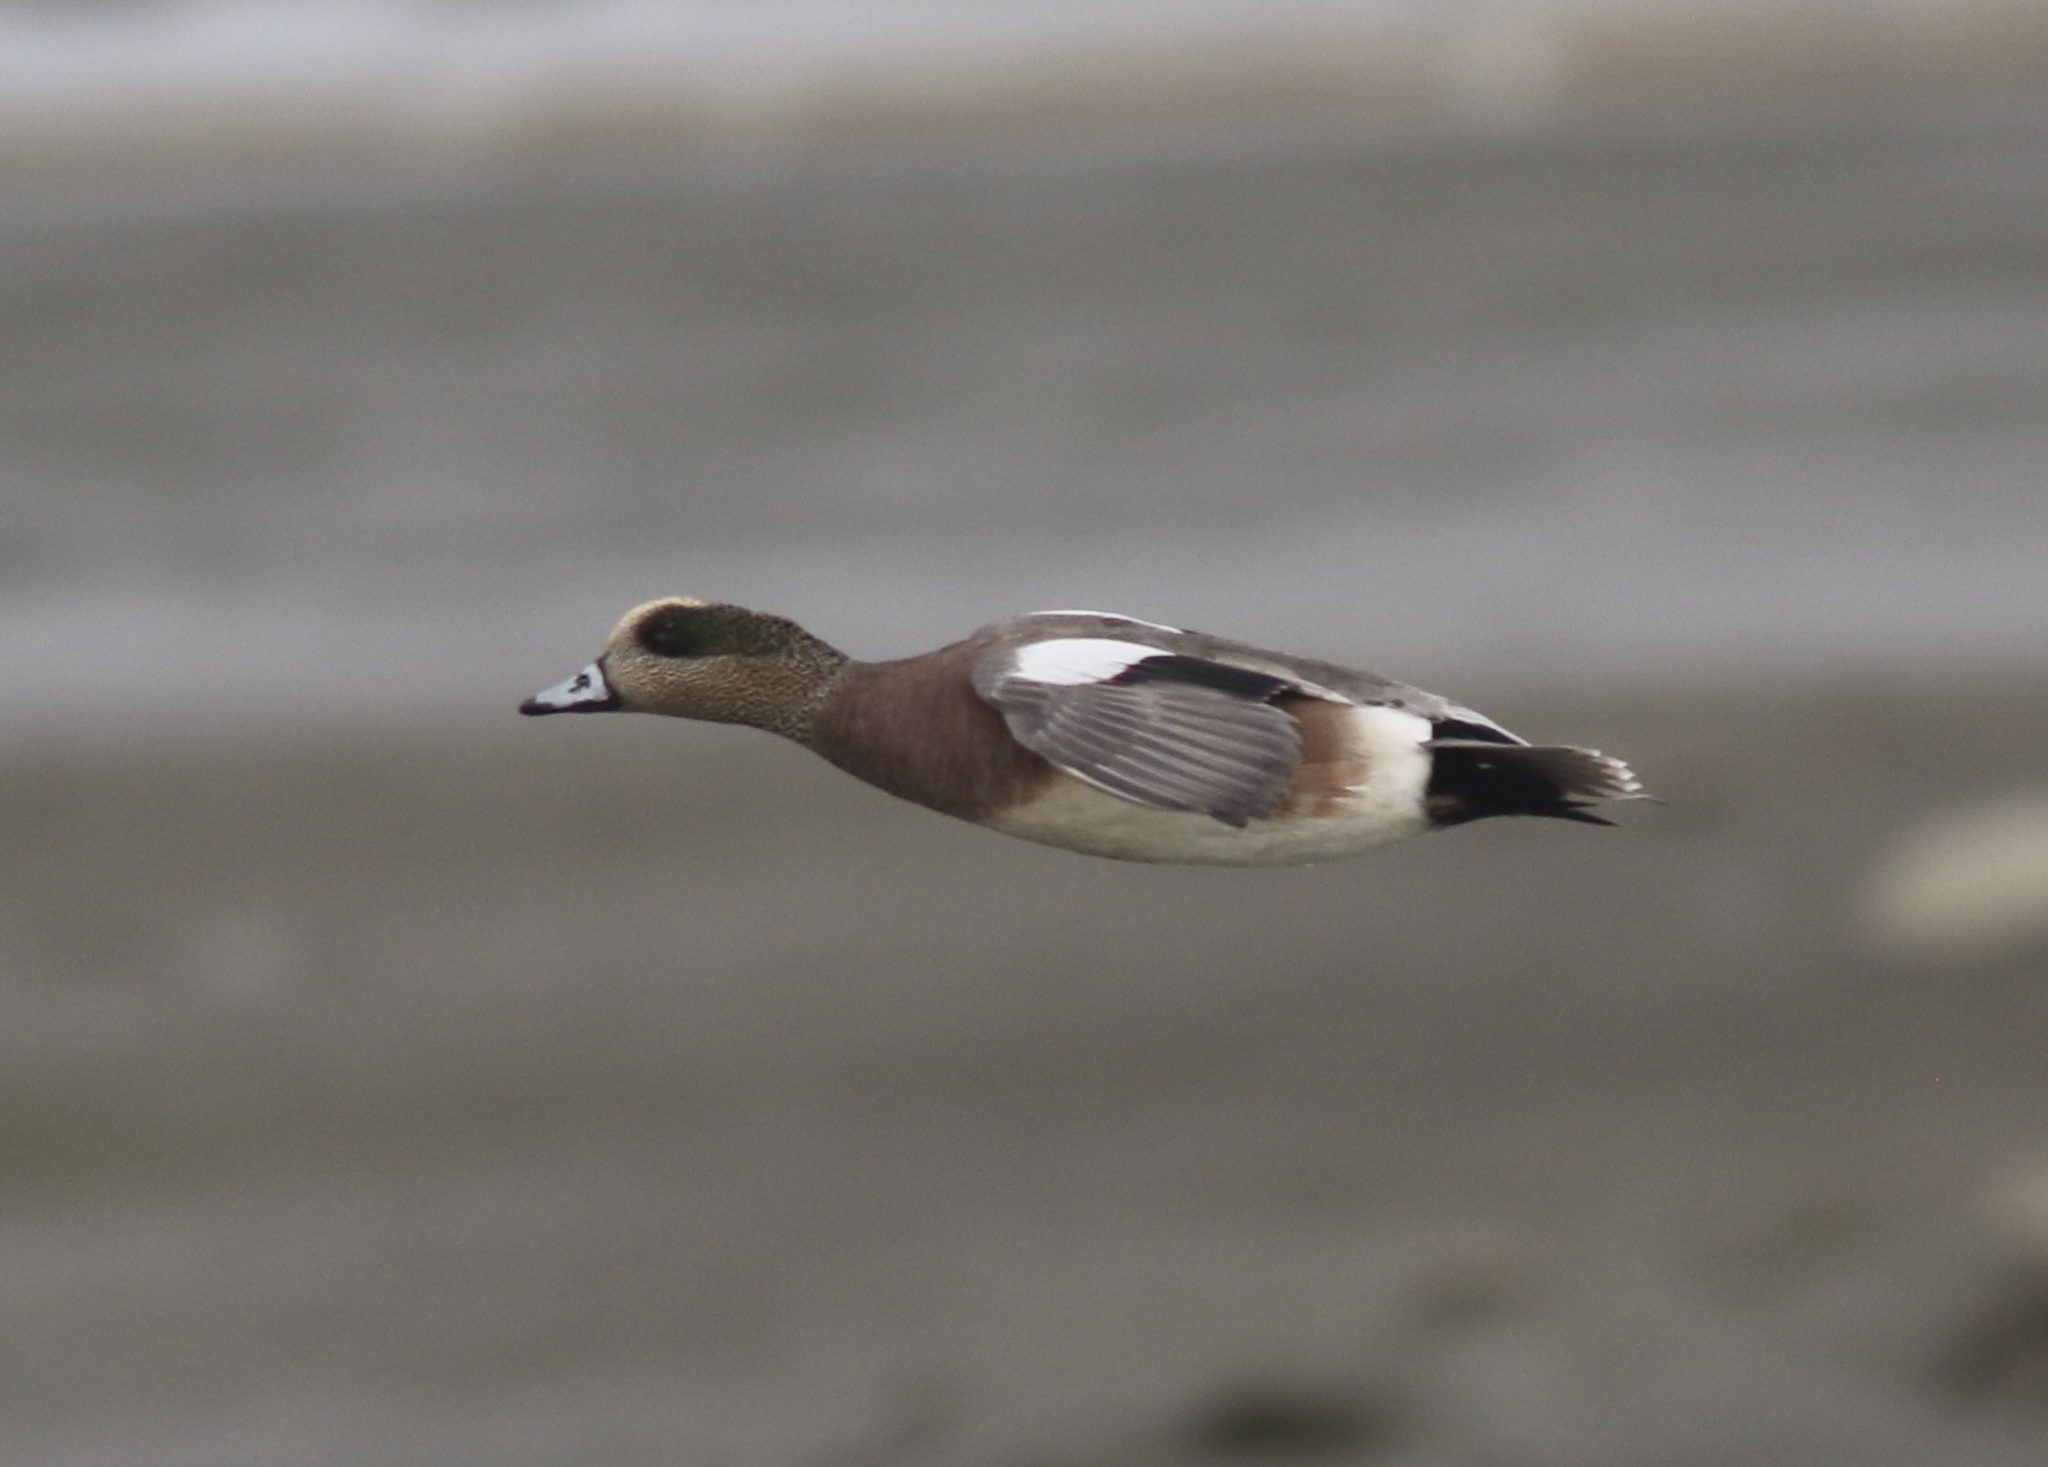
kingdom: Animalia
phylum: Chordata
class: Aves
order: Anseriformes
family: Anatidae
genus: Mareca
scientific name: Mareca americana
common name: American wigeon
